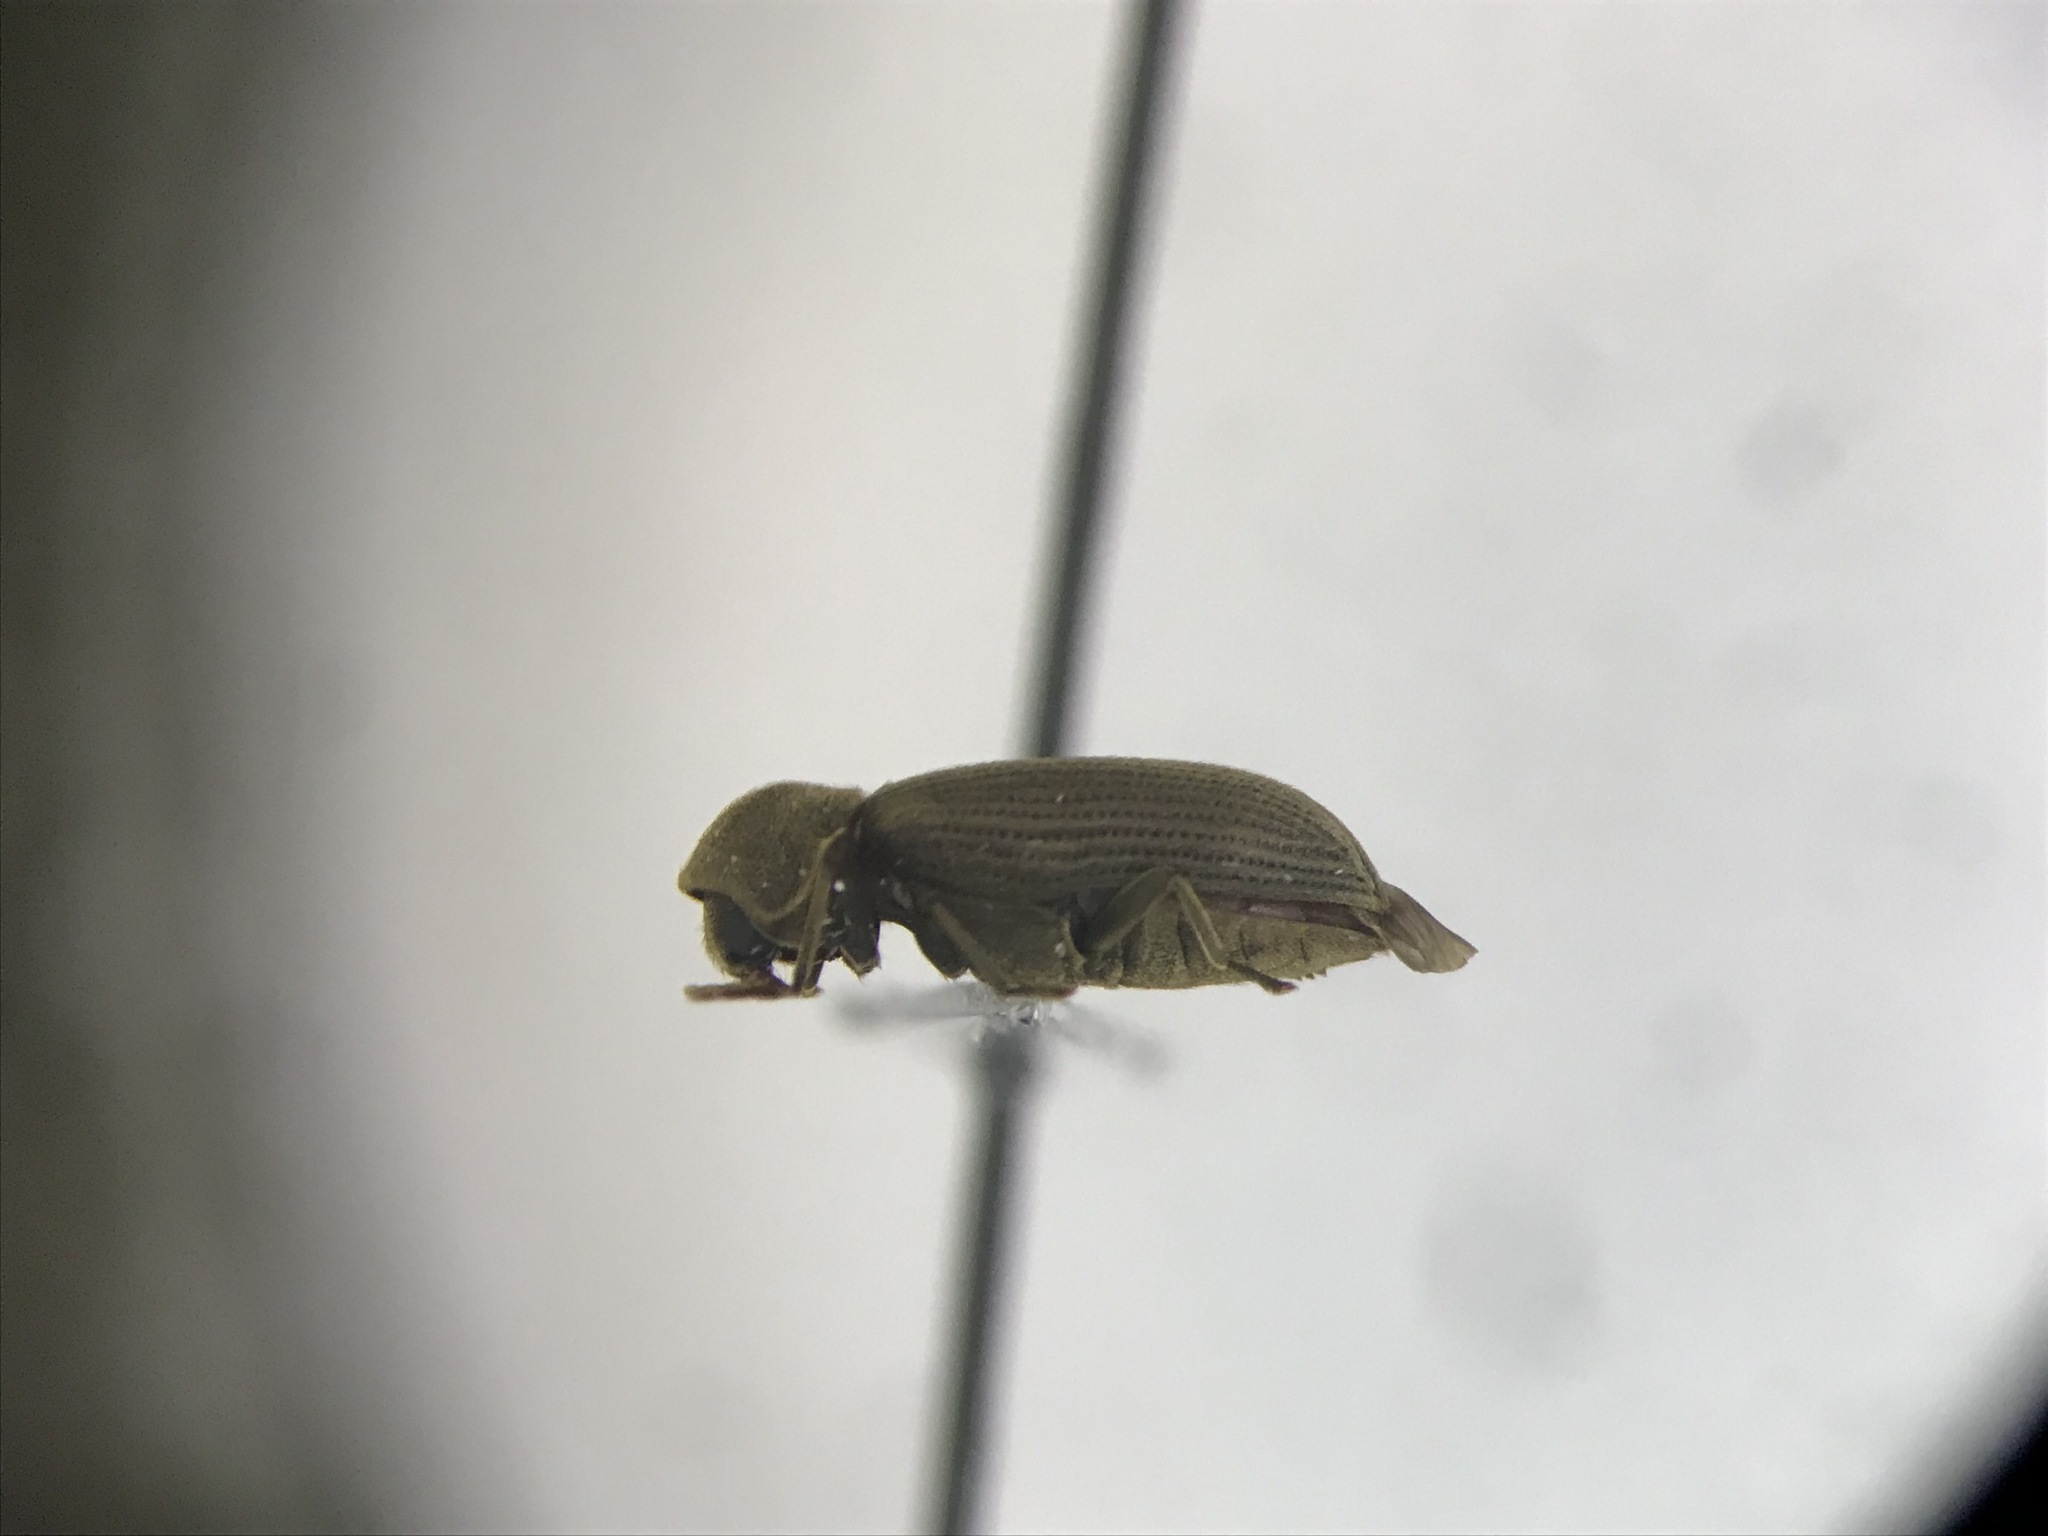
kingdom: Animalia
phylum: Arthropoda
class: Insecta
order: Coleoptera
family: Anobiidae
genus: Priobium
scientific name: Priobium sericeum
